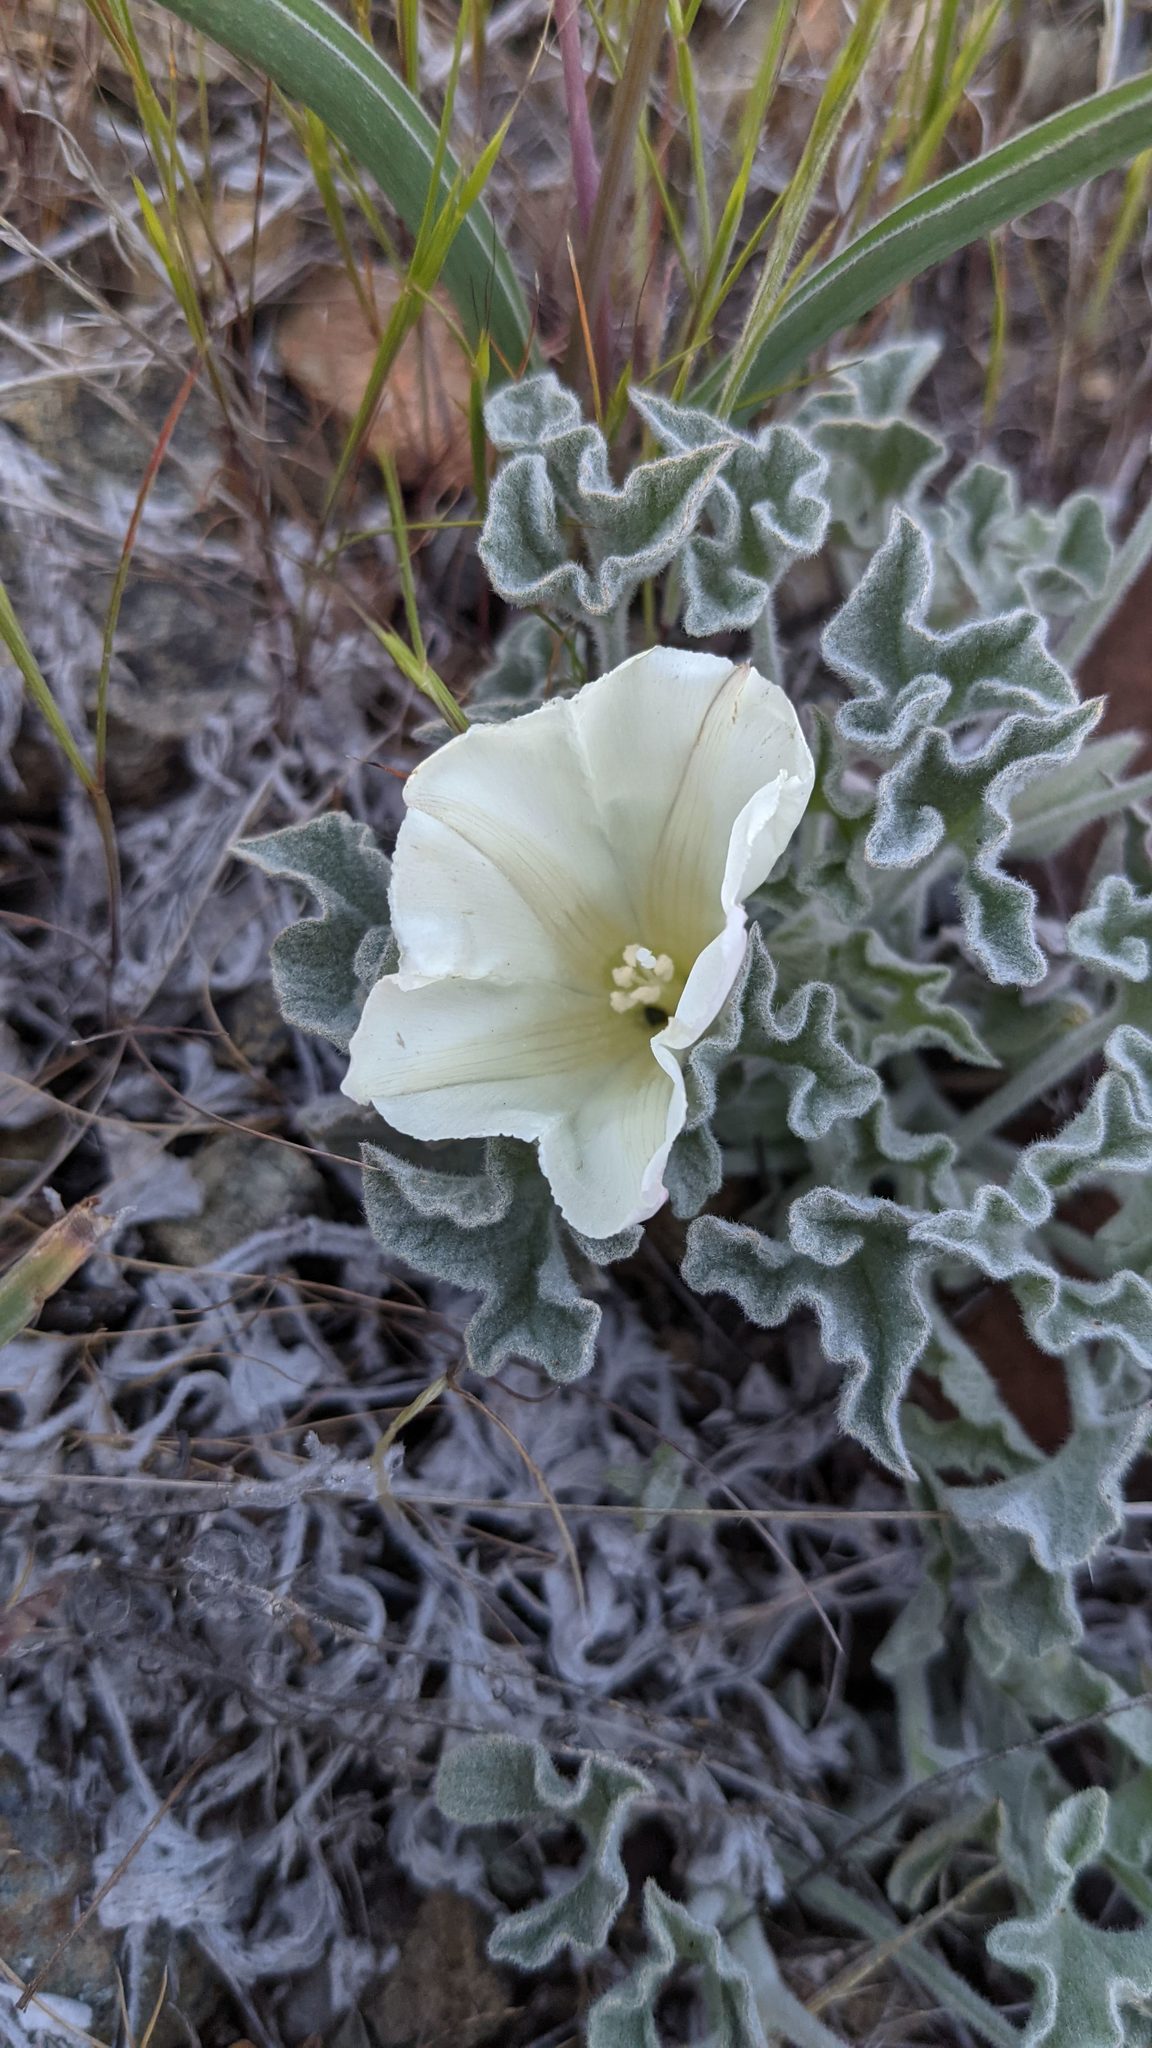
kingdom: Plantae
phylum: Tracheophyta
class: Magnoliopsida
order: Solanales
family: Convolvulaceae
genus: Calystegia
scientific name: Calystegia collina
